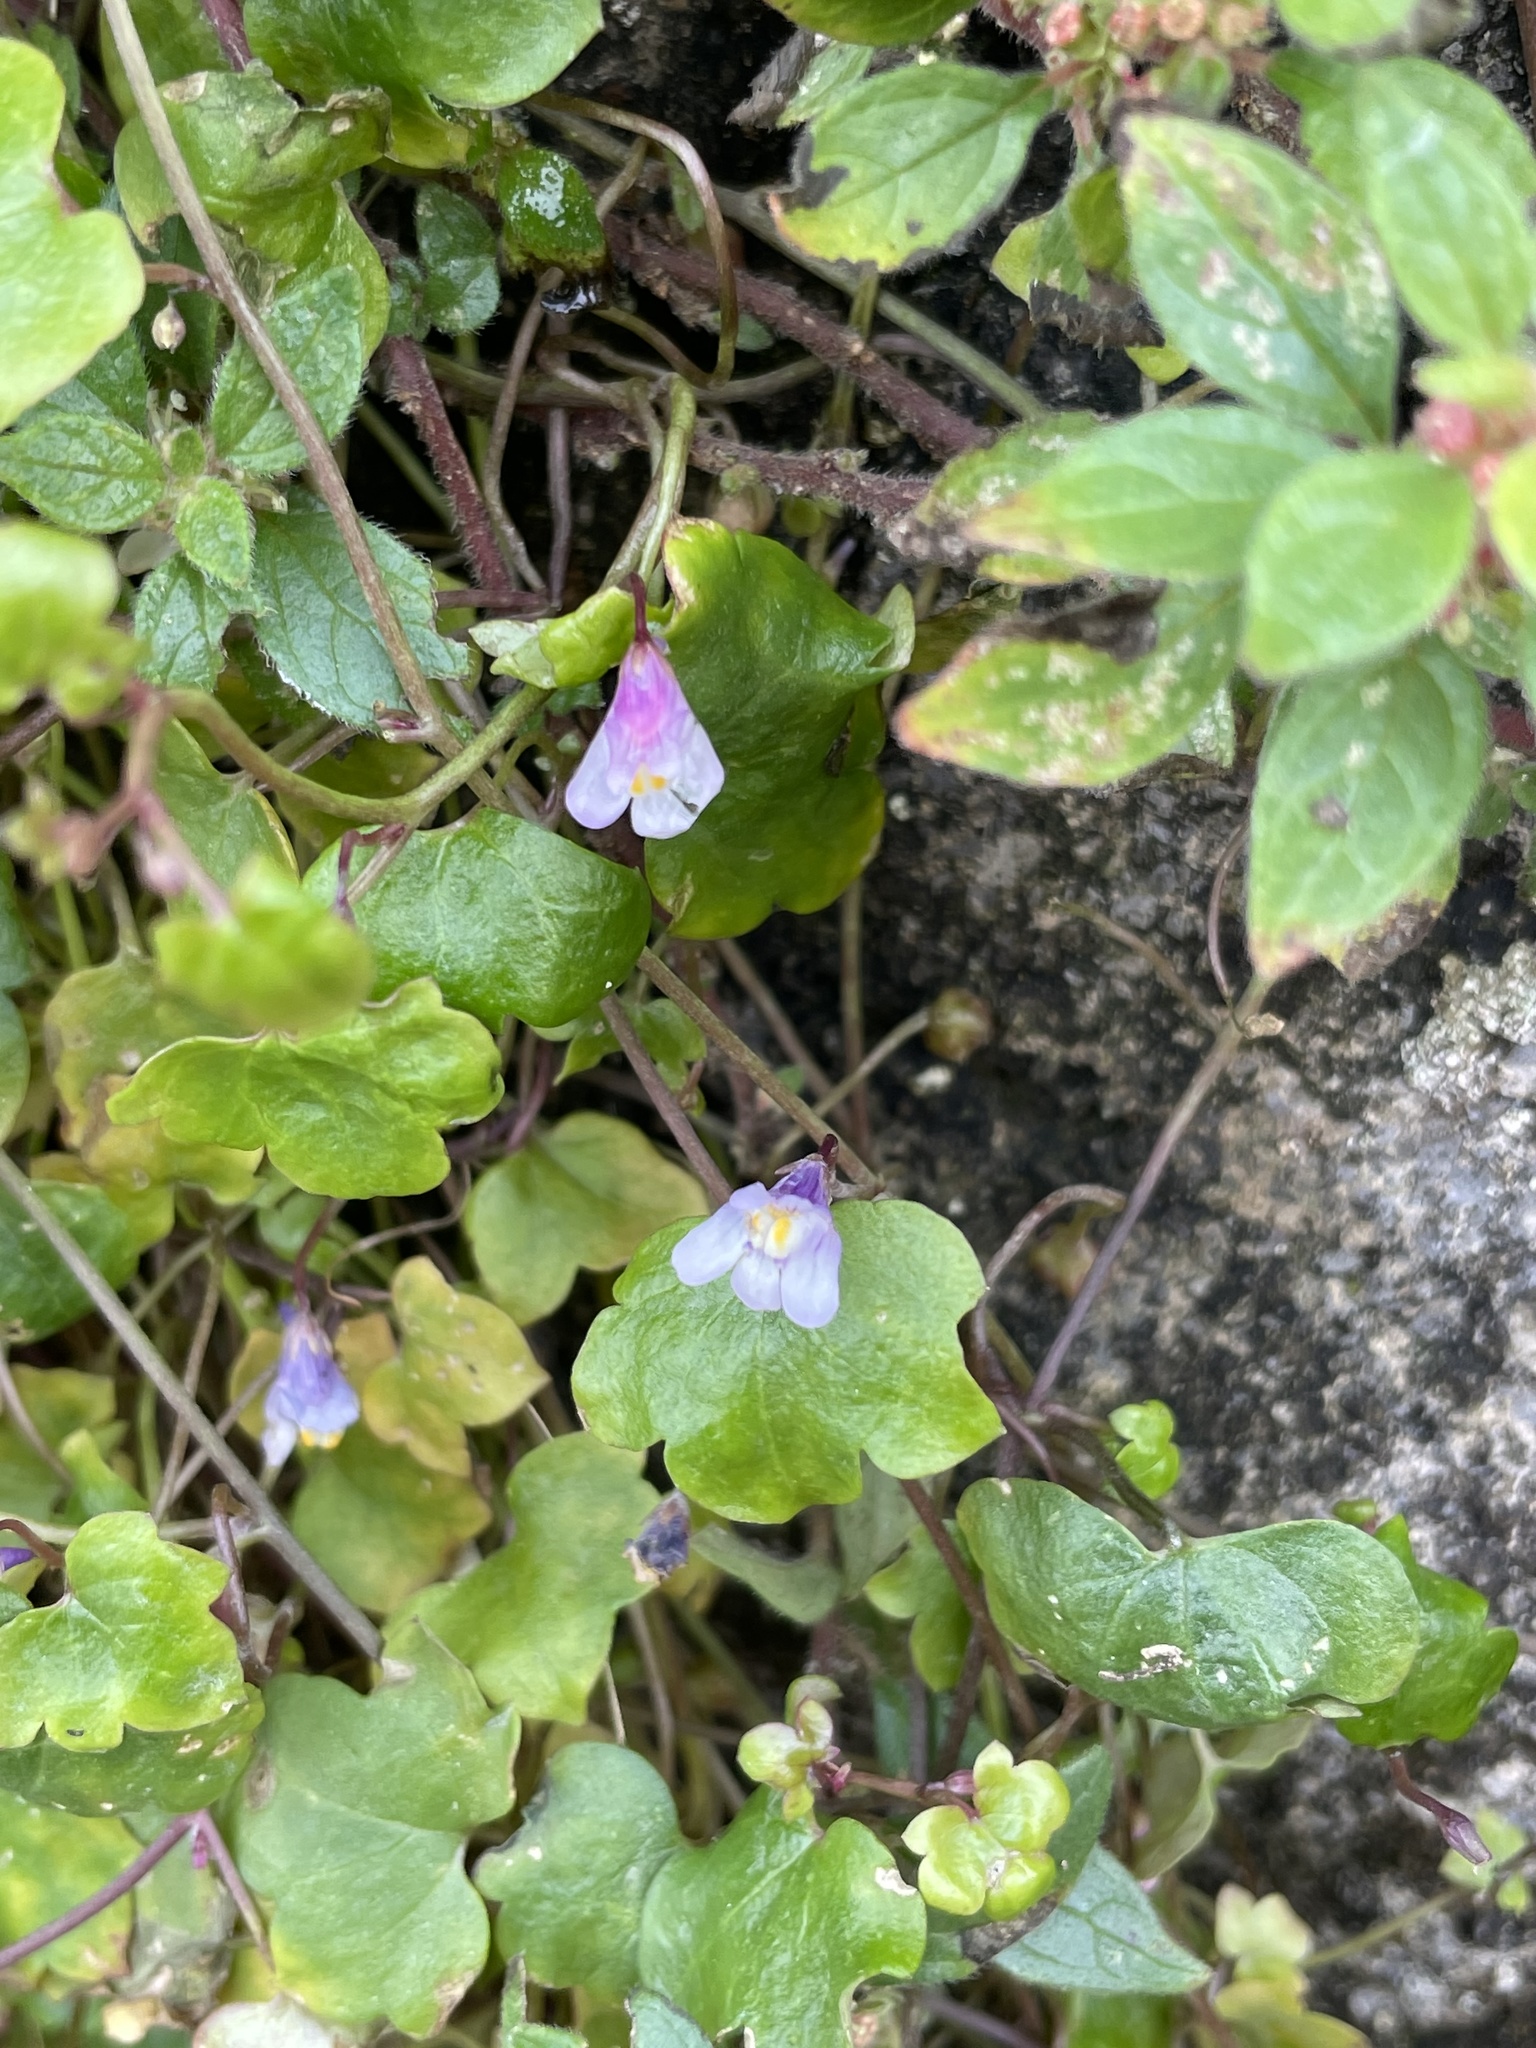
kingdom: Plantae
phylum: Tracheophyta
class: Magnoliopsida
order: Lamiales
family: Plantaginaceae
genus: Cymbalaria
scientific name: Cymbalaria muralis
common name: Ivy-leaved toadflax
